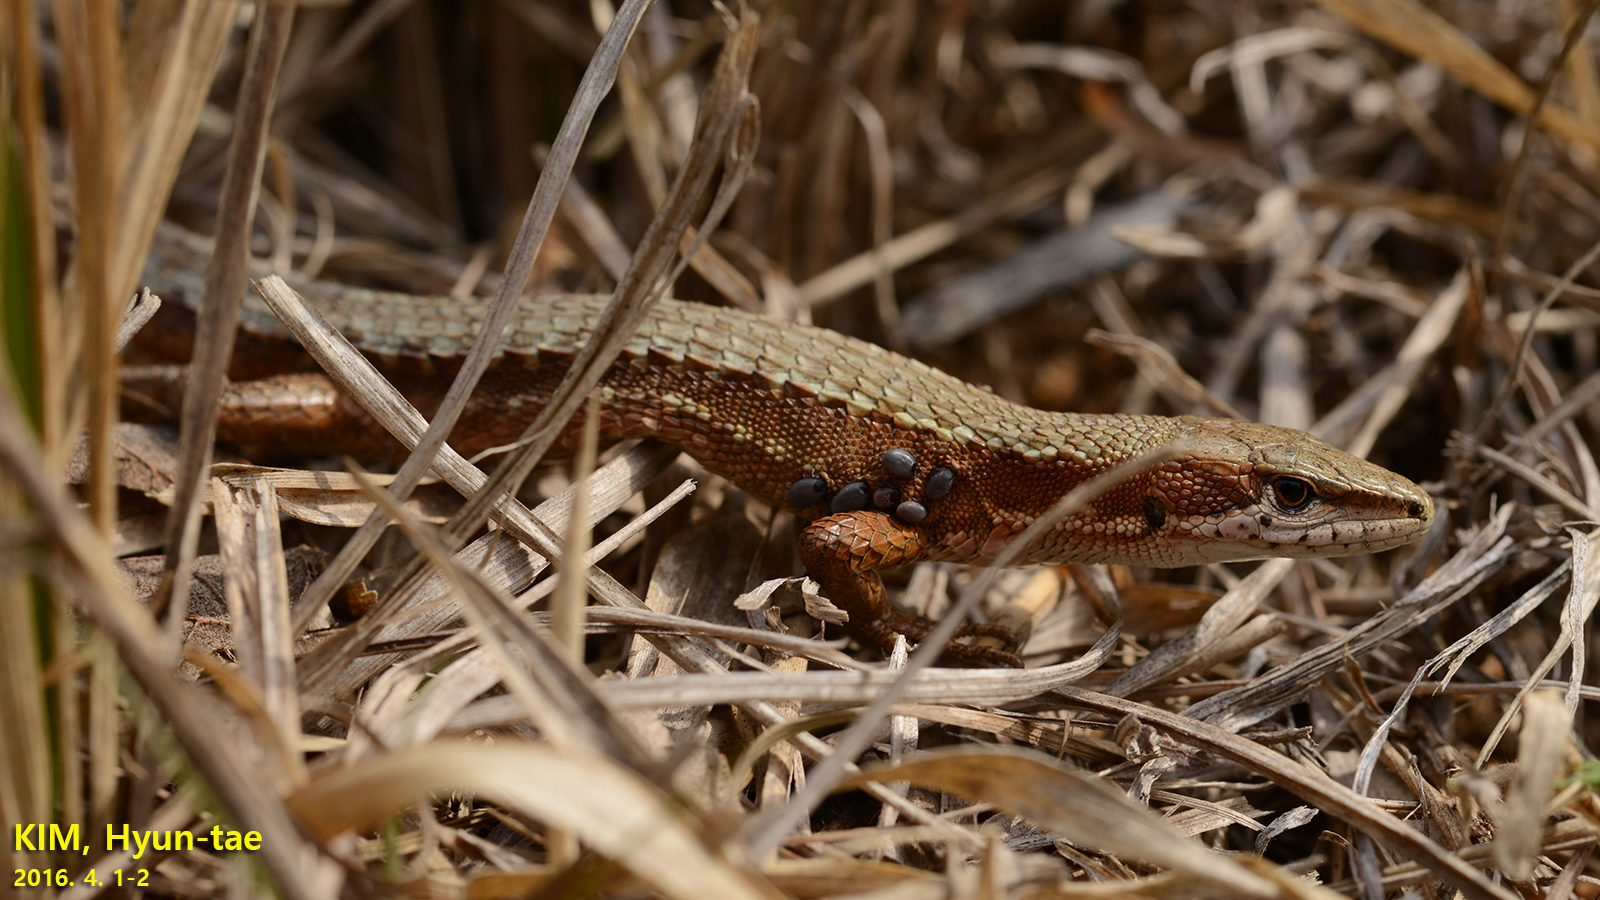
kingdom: Animalia
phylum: Chordata
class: Squamata
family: Lacertidae
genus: Takydromus
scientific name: Takydromus amurensis
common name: Amur grass lizard
